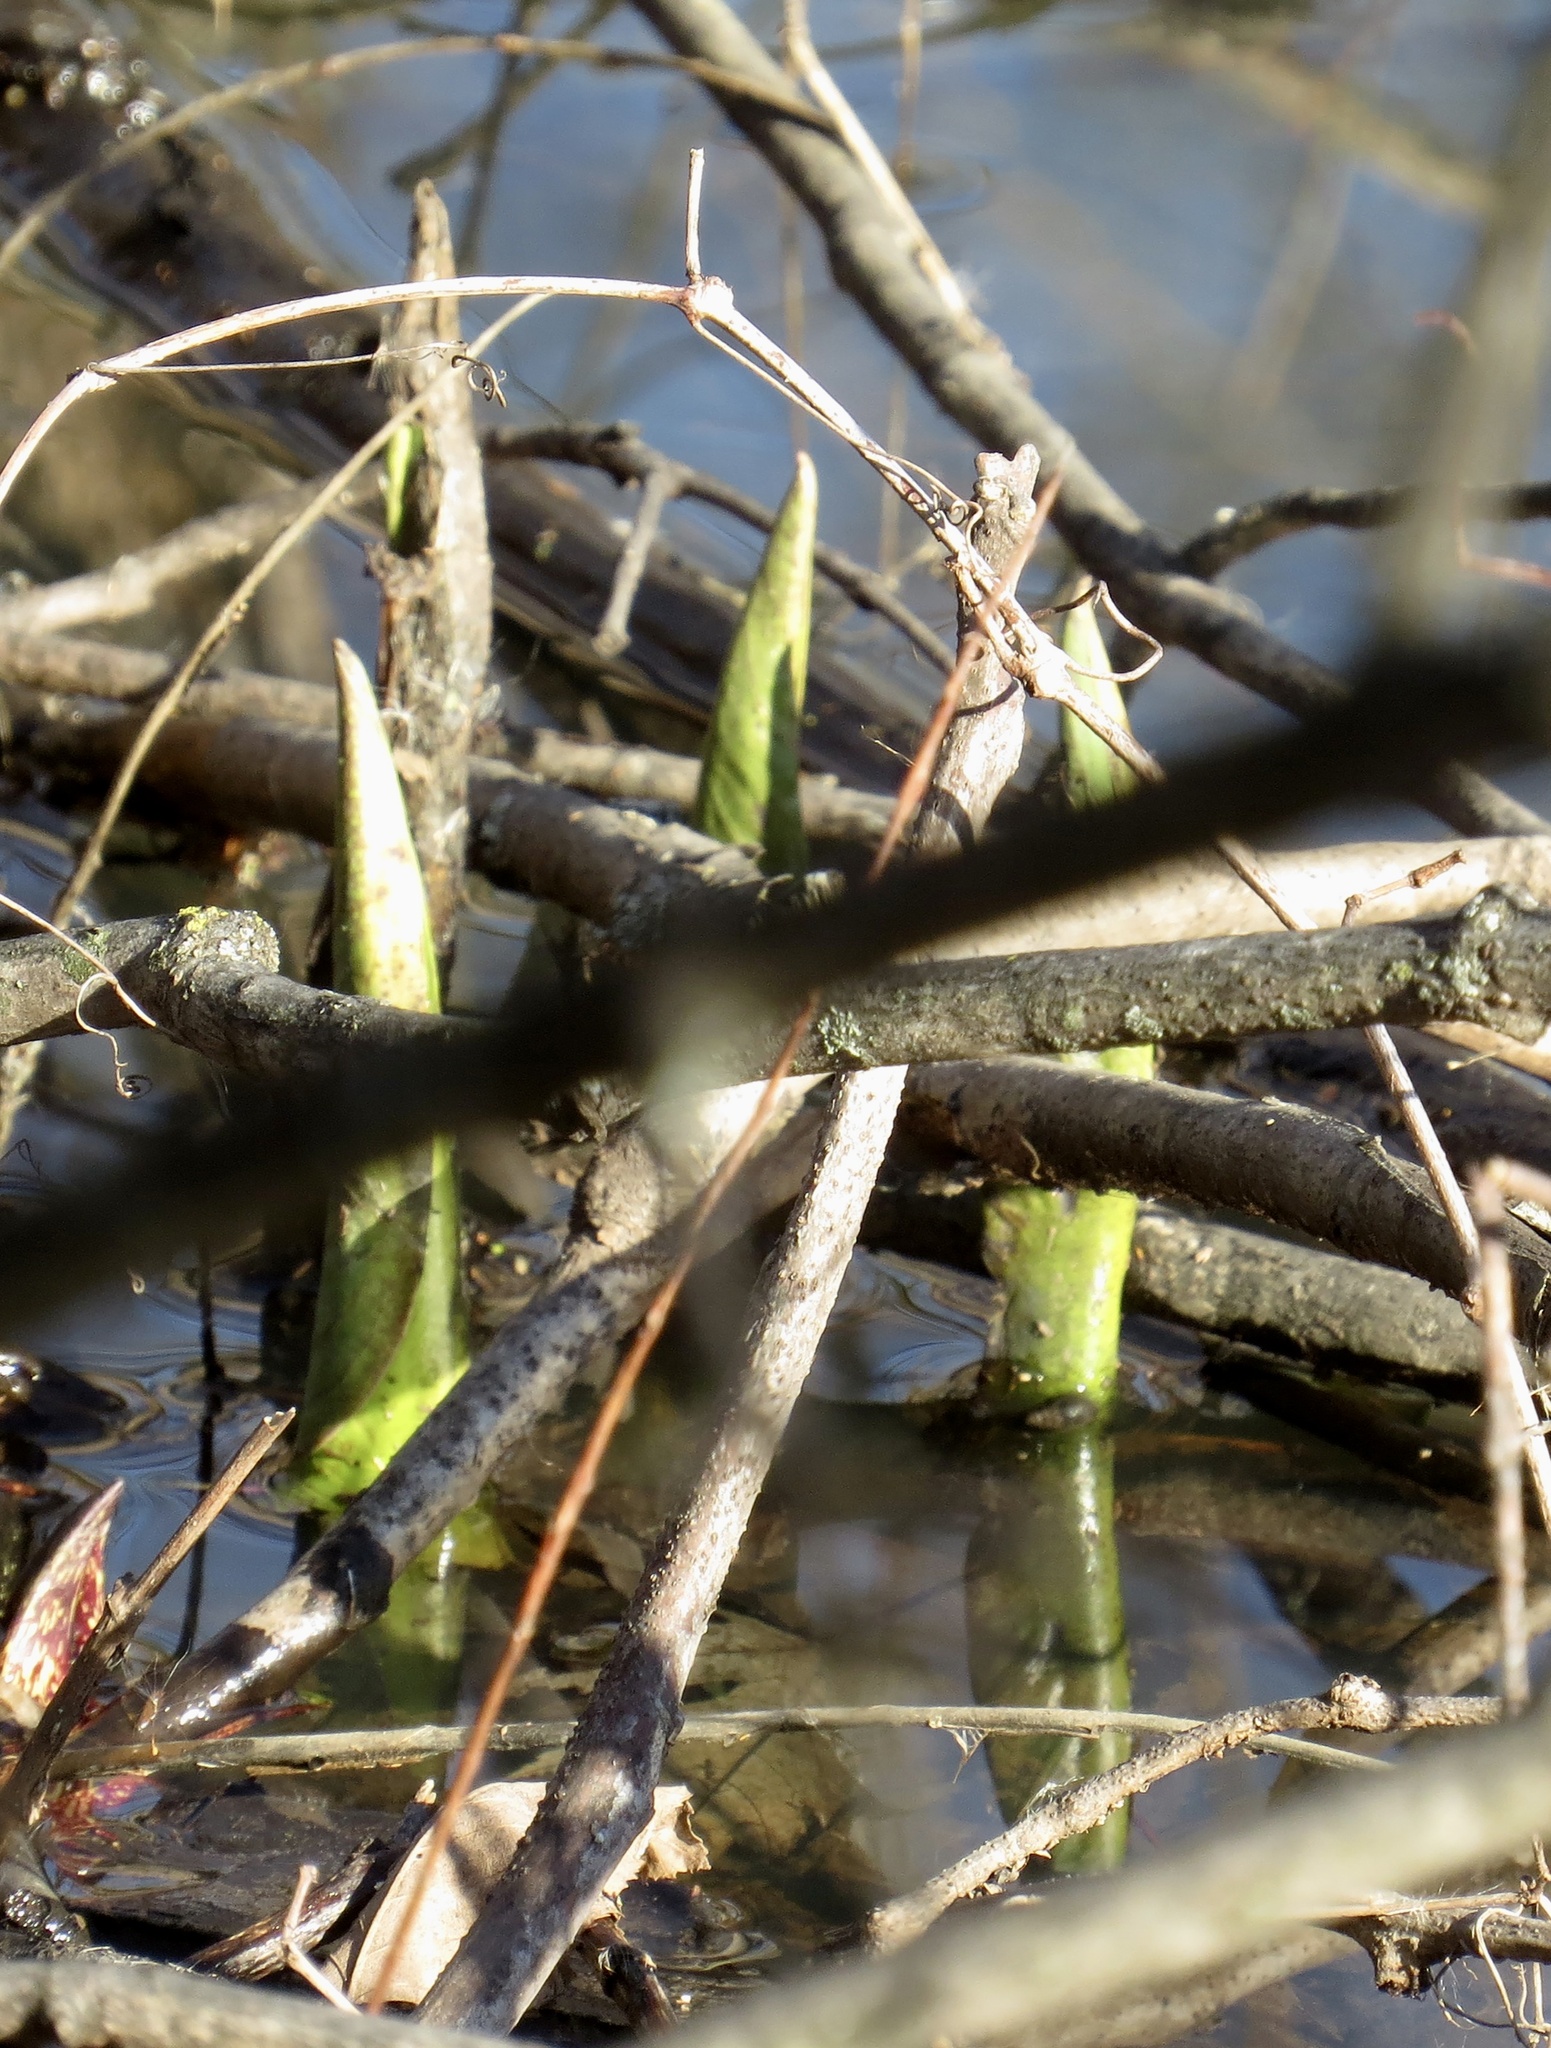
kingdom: Plantae
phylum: Tracheophyta
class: Liliopsida
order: Alismatales
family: Araceae
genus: Symplocarpus
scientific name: Symplocarpus foetidus
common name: Eastern skunk cabbage
